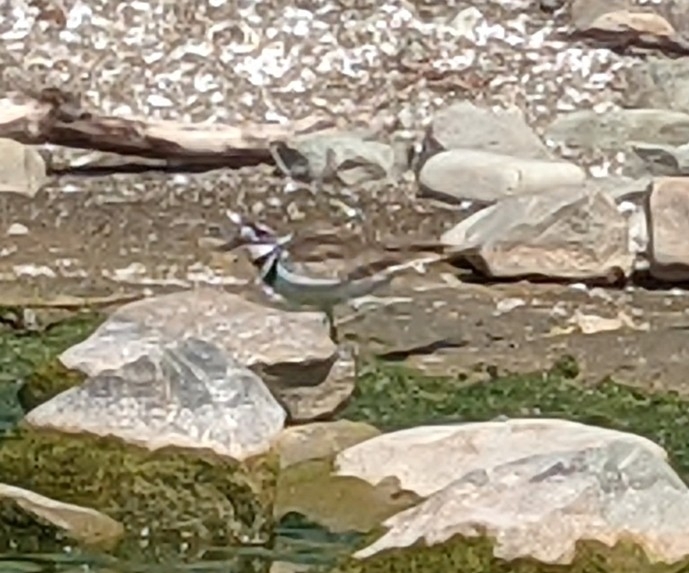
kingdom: Animalia
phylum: Chordata
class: Aves
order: Charadriiformes
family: Charadriidae
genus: Charadrius
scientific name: Charadrius vociferus
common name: Killdeer
